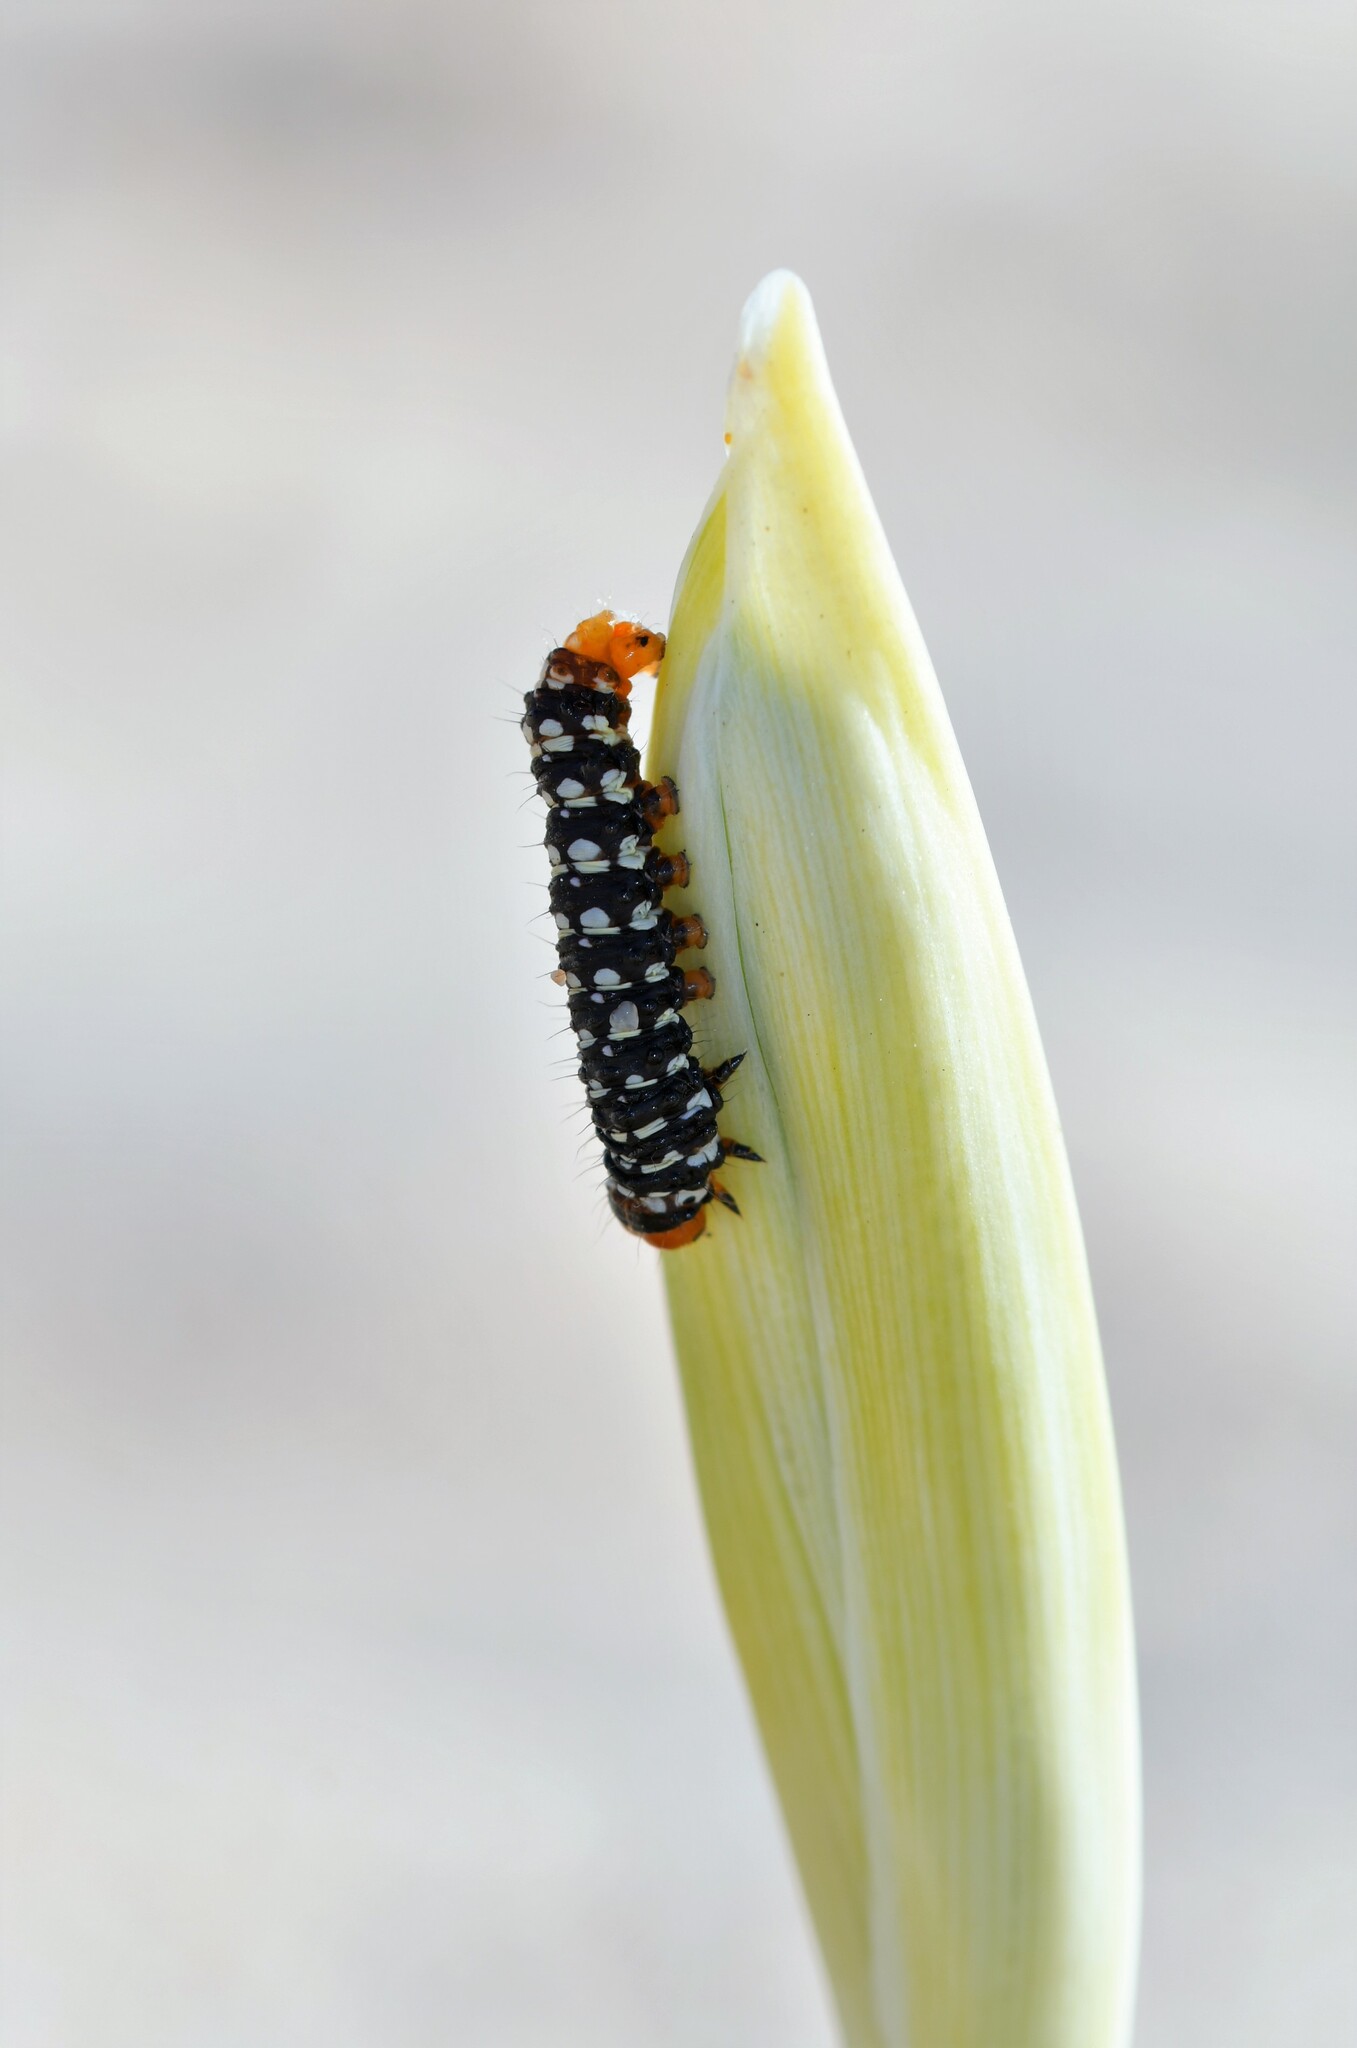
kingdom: Animalia
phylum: Arthropoda
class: Insecta
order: Lepidoptera
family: Noctuidae
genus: Brithys
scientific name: Brithys crini
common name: Kew arches
